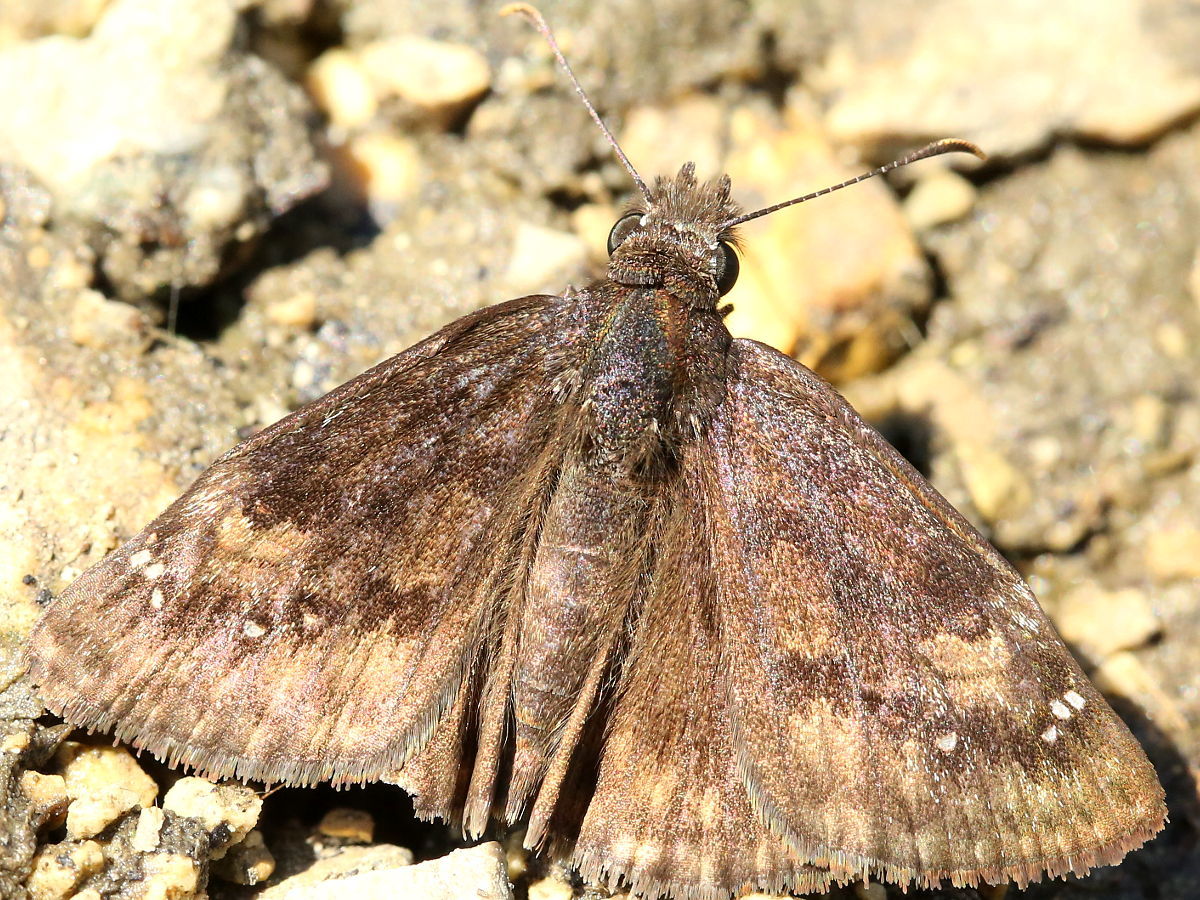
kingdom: Animalia
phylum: Arthropoda
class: Insecta
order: Lepidoptera
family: Hesperiidae
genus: Erynnis
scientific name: Erynnis baptisiae
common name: Wild indigo duskywing
